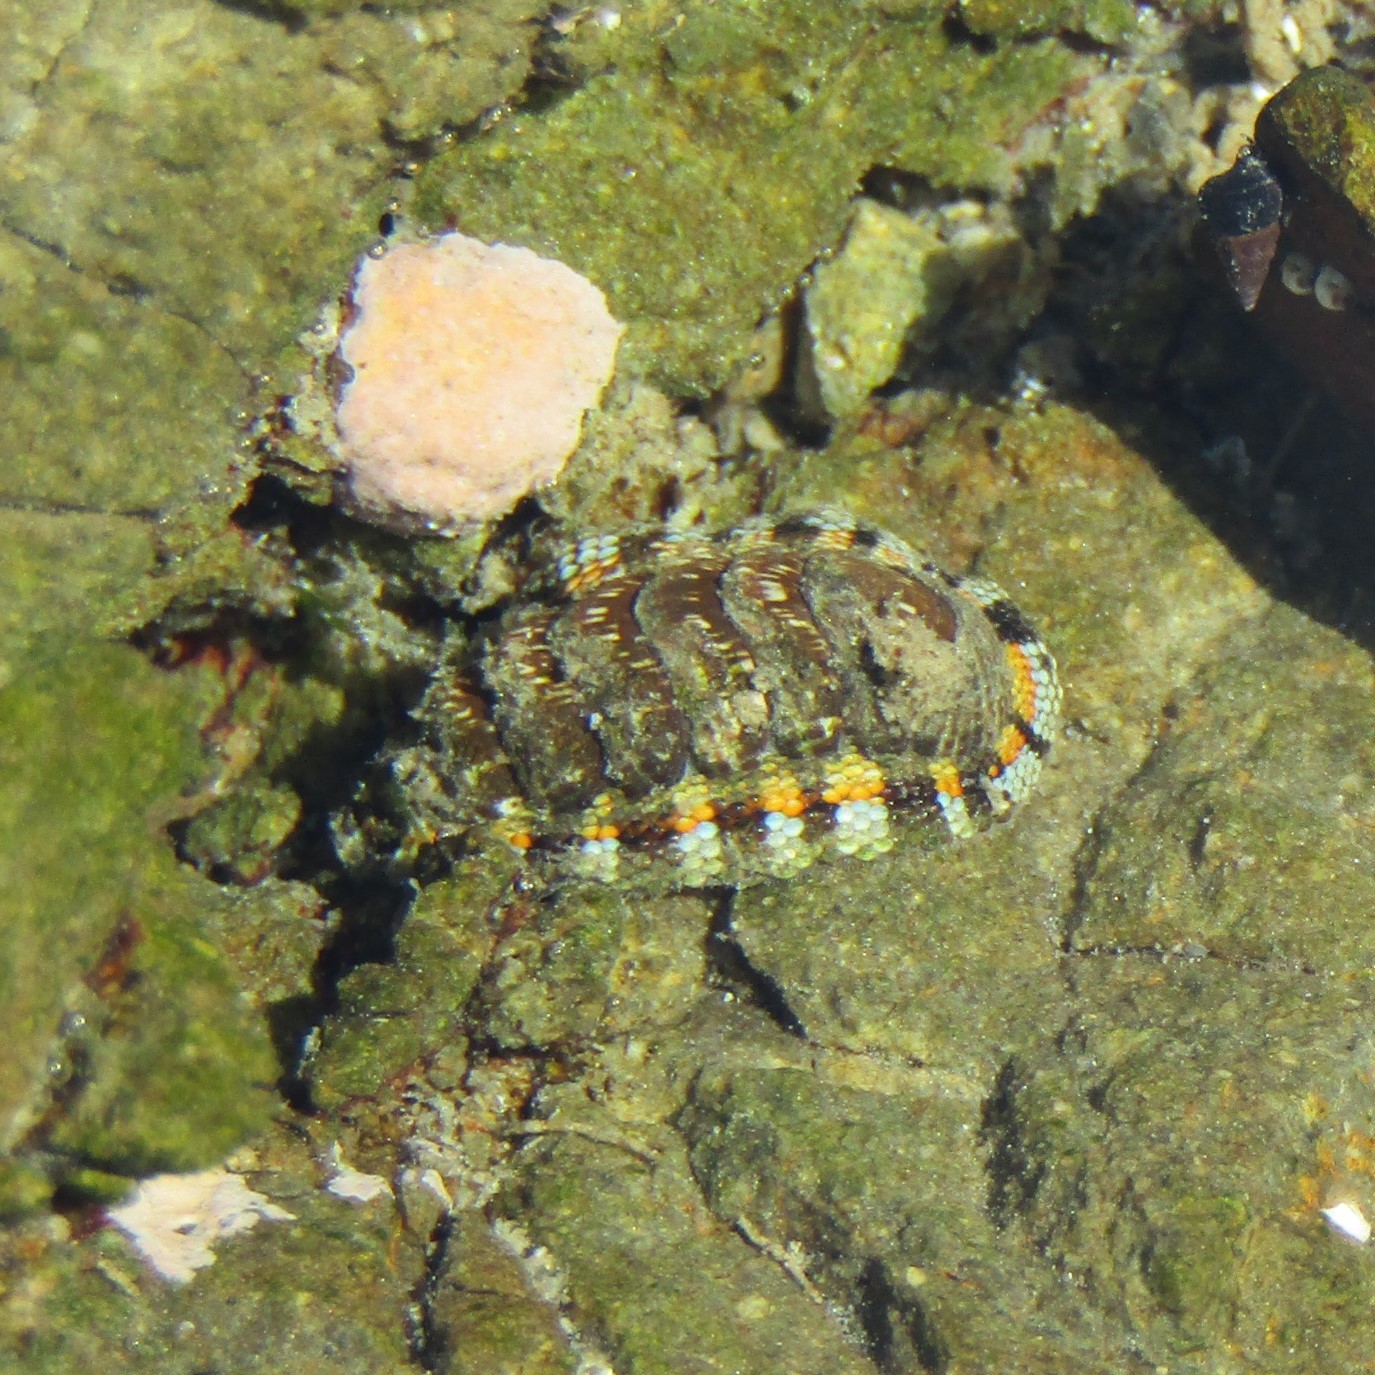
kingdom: Animalia
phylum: Mollusca
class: Polyplacophora
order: Chitonida
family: Chitonidae
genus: Sypharochiton
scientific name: Sypharochiton sinclairi
